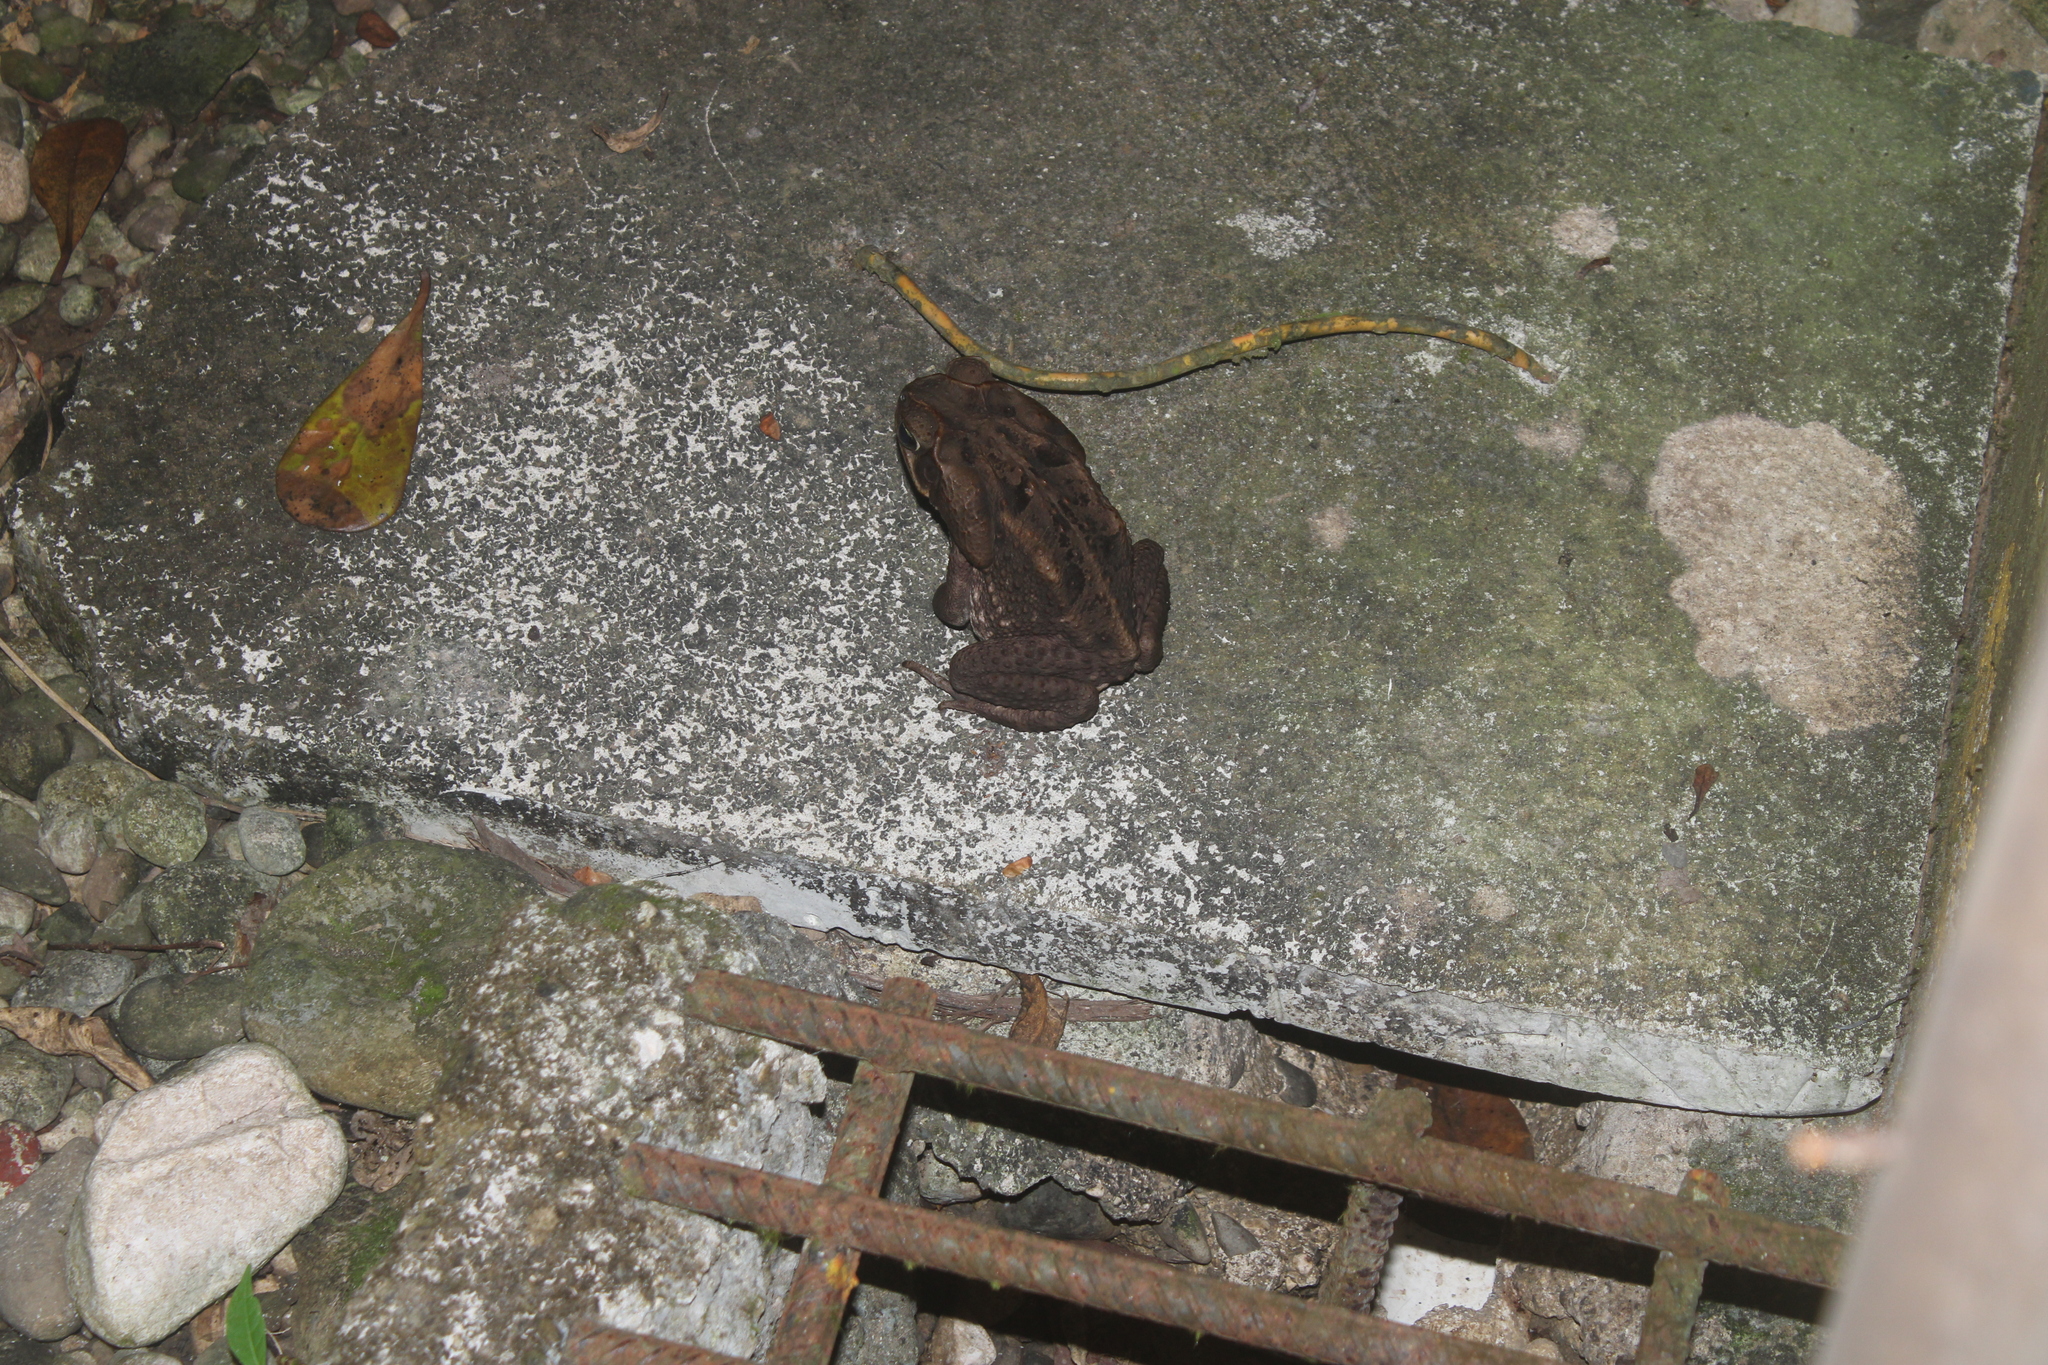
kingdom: Animalia
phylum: Chordata
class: Amphibia
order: Anura
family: Bufonidae
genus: Rhinella
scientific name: Rhinella horribilis
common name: Mesoamerican cane toad
